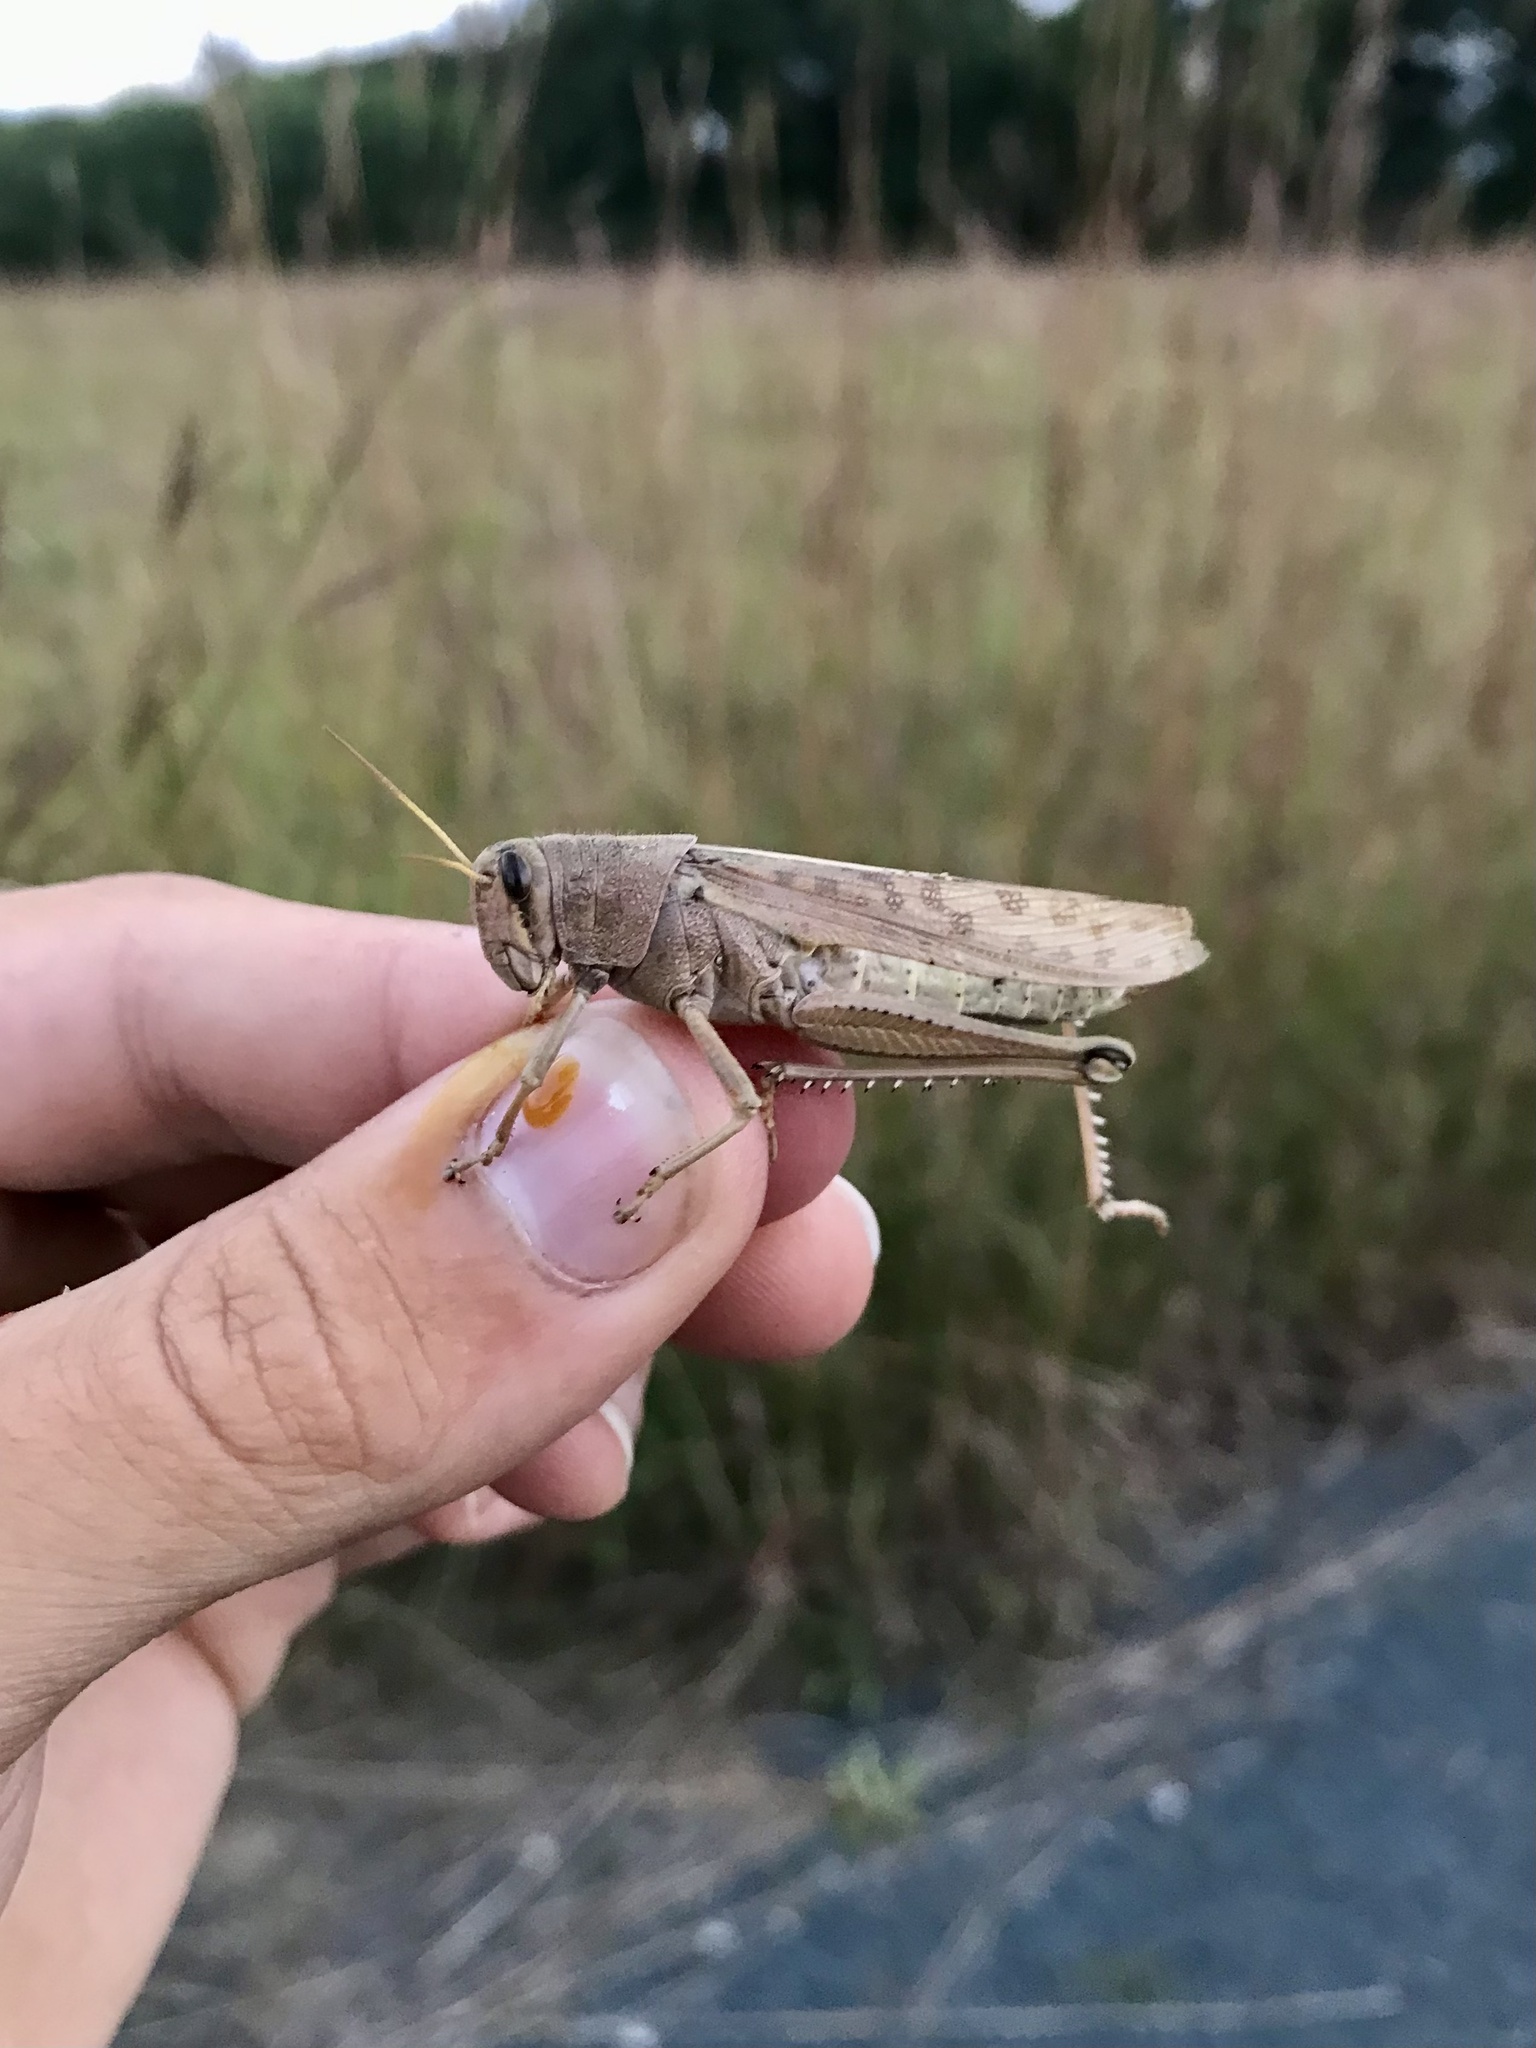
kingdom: Animalia
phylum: Arthropoda
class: Insecta
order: Orthoptera
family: Acrididae
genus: Schistocerca
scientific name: Schistocerca lineata
